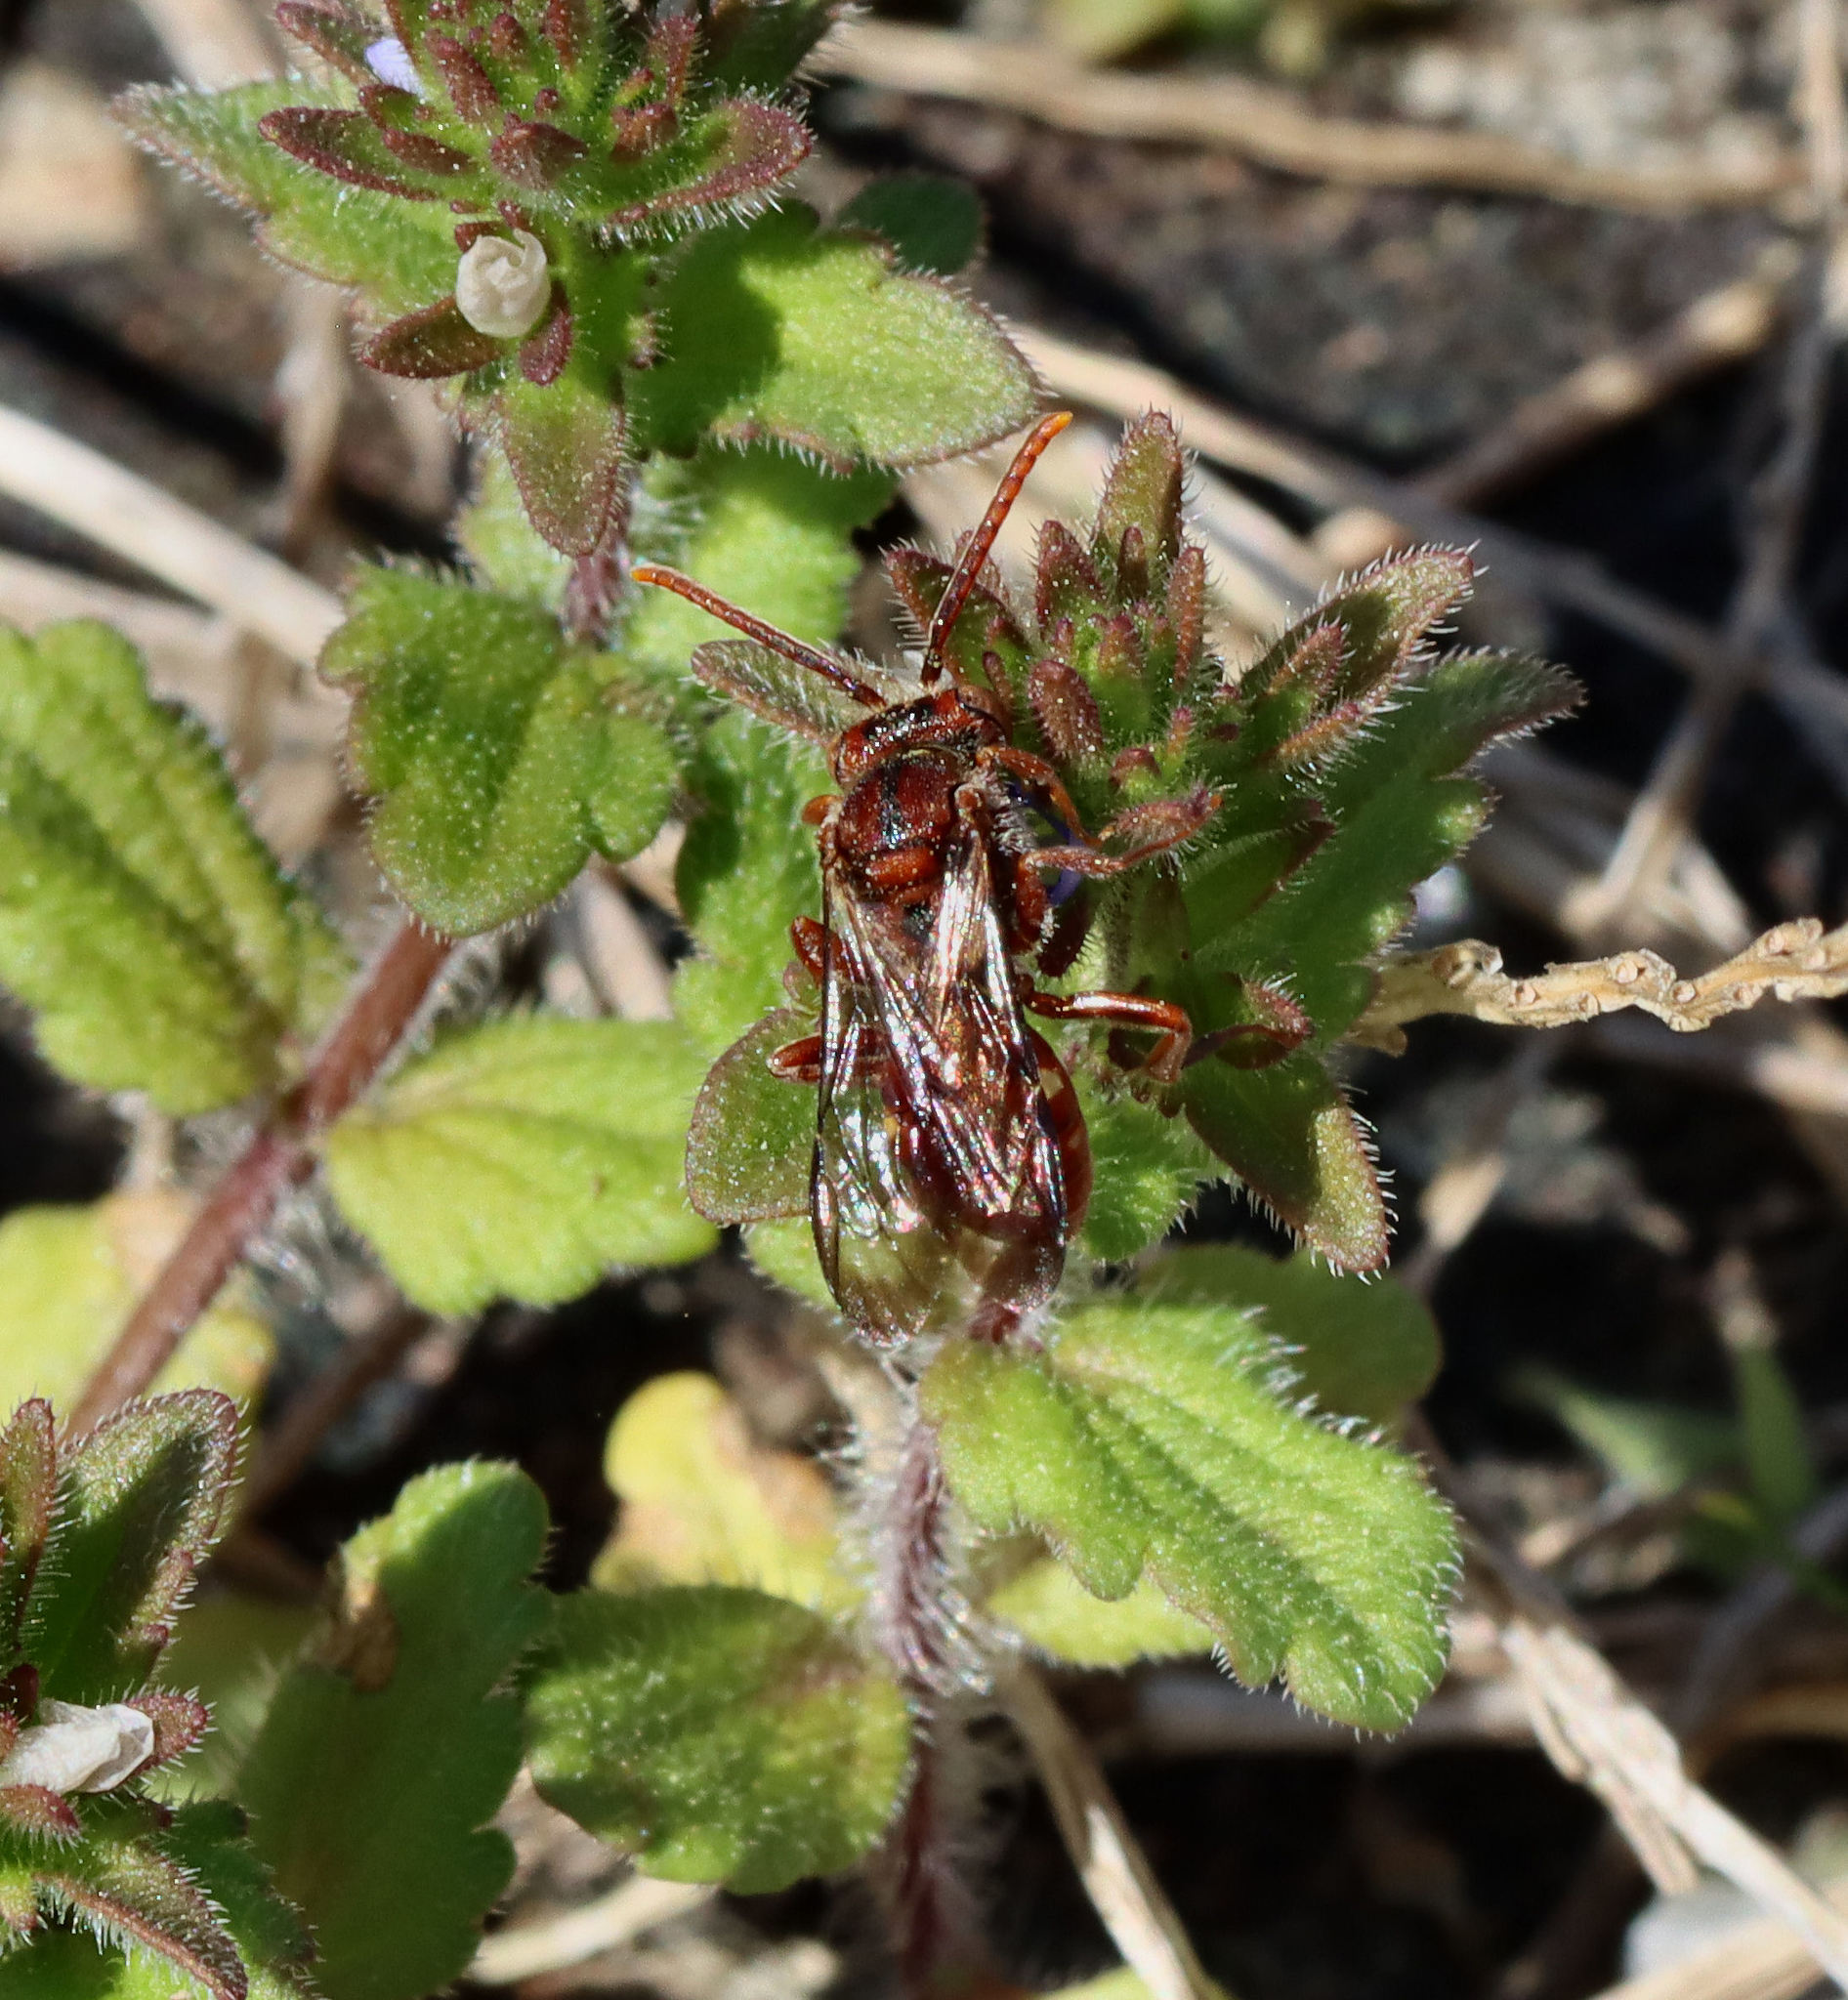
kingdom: Animalia
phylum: Arthropoda
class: Insecta
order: Hymenoptera
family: Apidae
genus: Nomada
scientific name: Nomada
